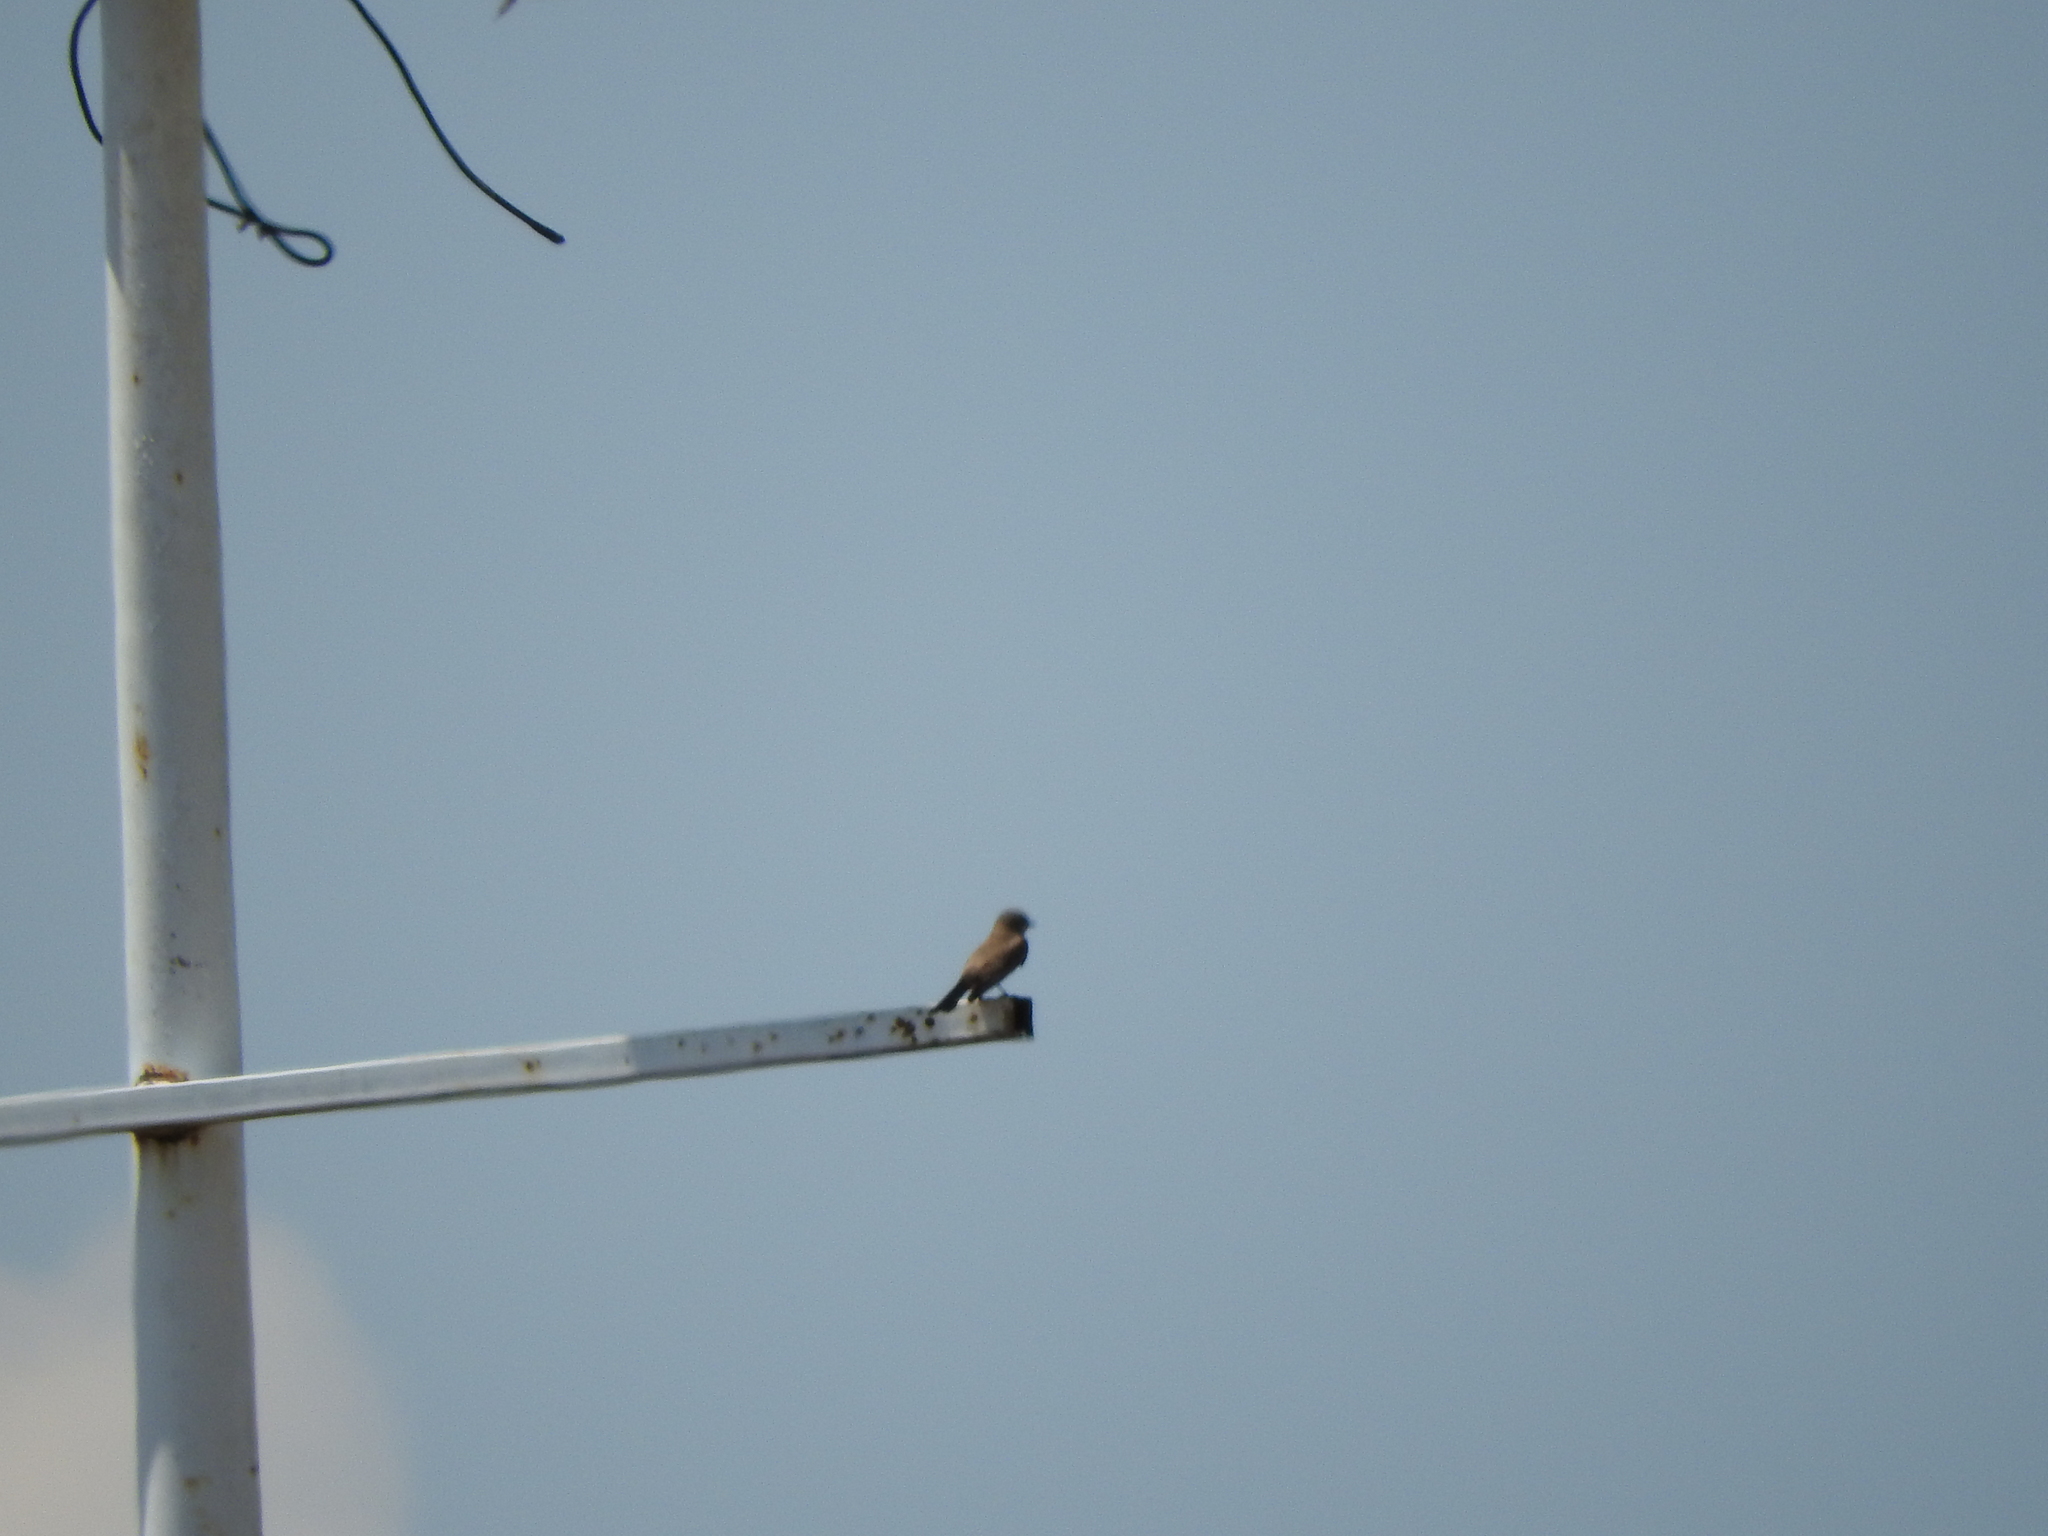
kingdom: Animalia
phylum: Chordata
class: Aves
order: Passeriformes
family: Tyrannidae
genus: Pyrocephalus
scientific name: Pyrocephalus rubinus
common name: Vermilion flycatcher
